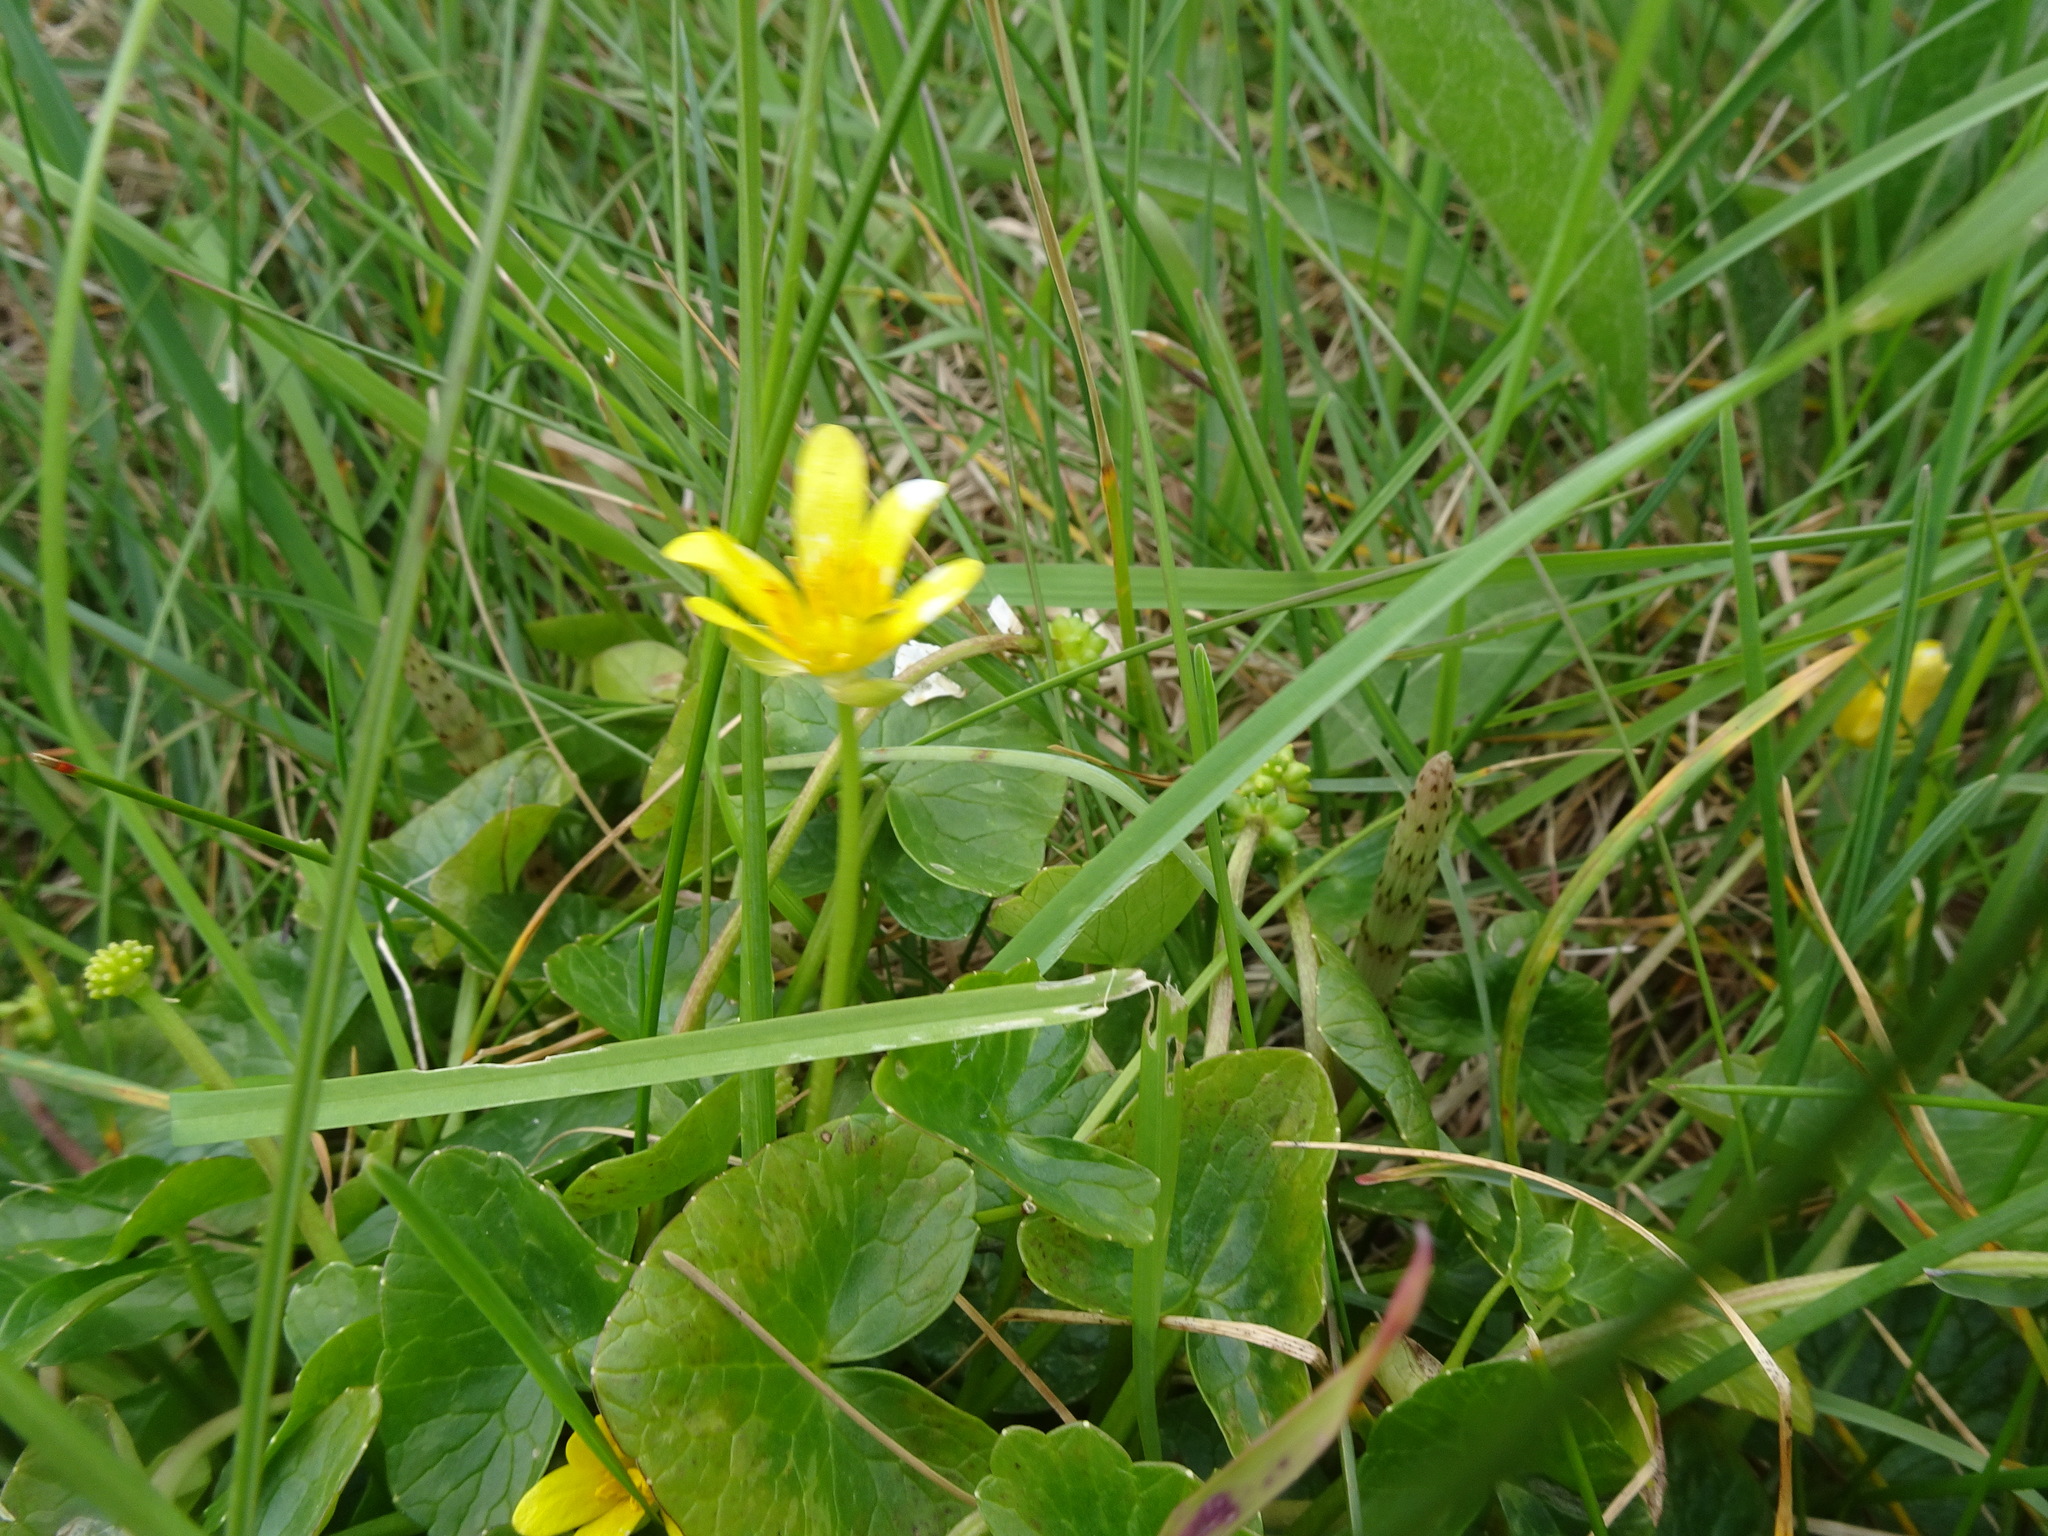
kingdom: Plantae
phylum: Tracheophyta
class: Magnoliopsida
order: Ranunculales
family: Ranunculaceae
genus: Ficaria
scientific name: Ficaria verna
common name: Lesser celandine
